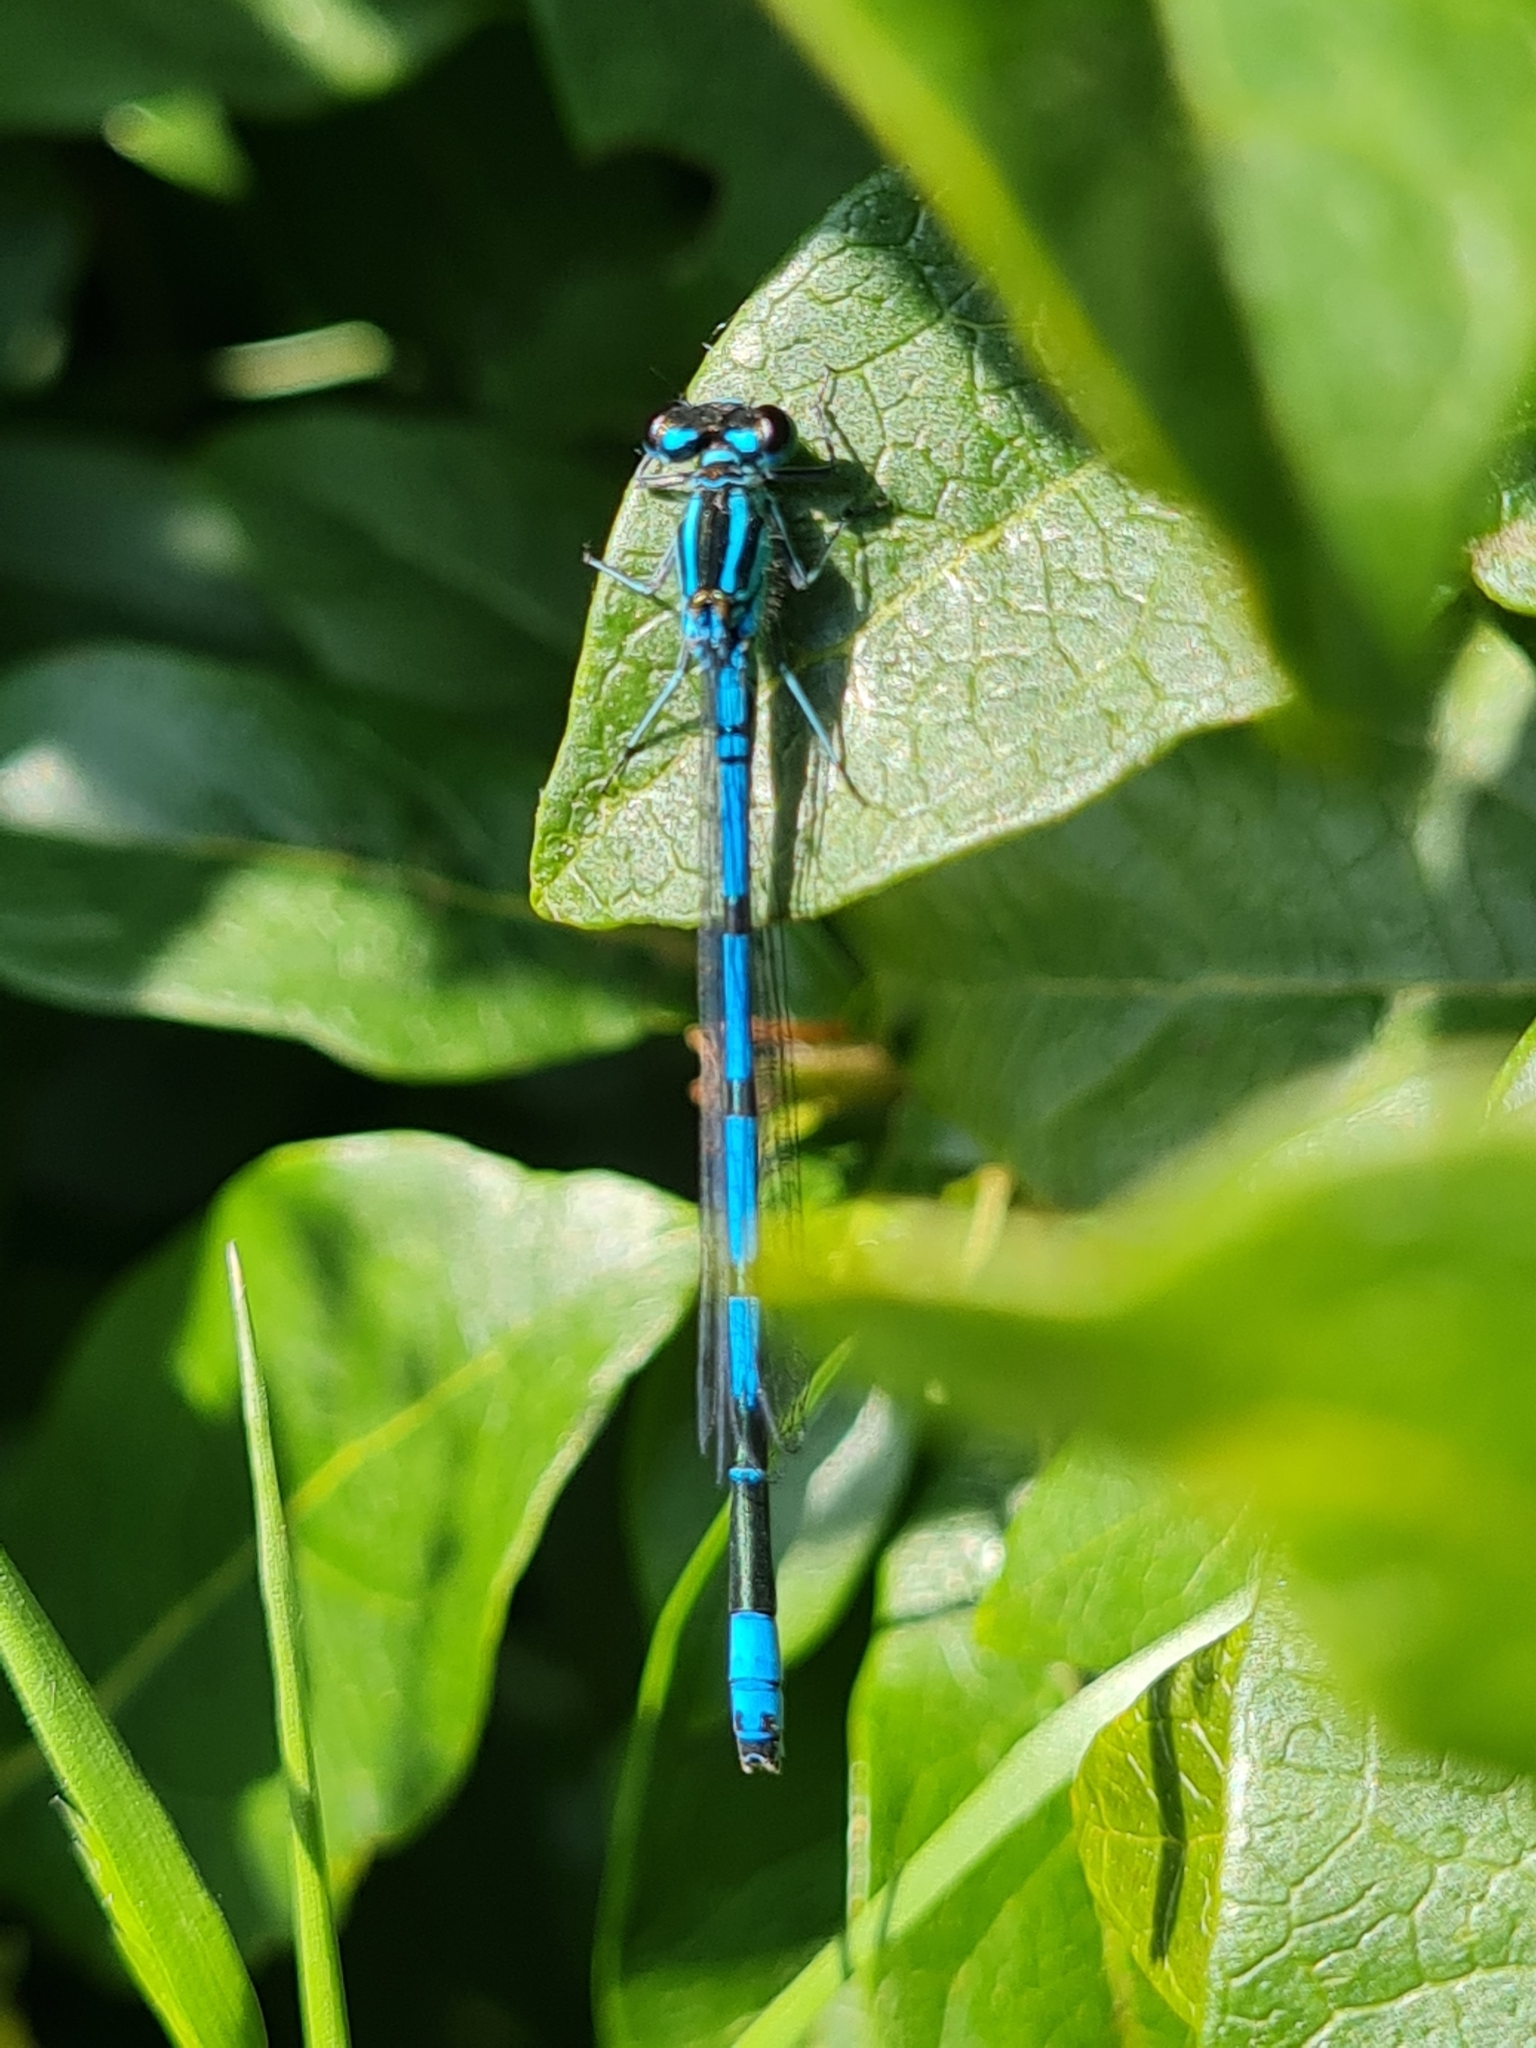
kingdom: Animalia
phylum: Arthropoda
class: Insecta
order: Odonata
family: Coenagrionidae
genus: Coenagrion
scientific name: Coenagrion puella
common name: Azure damselfly
